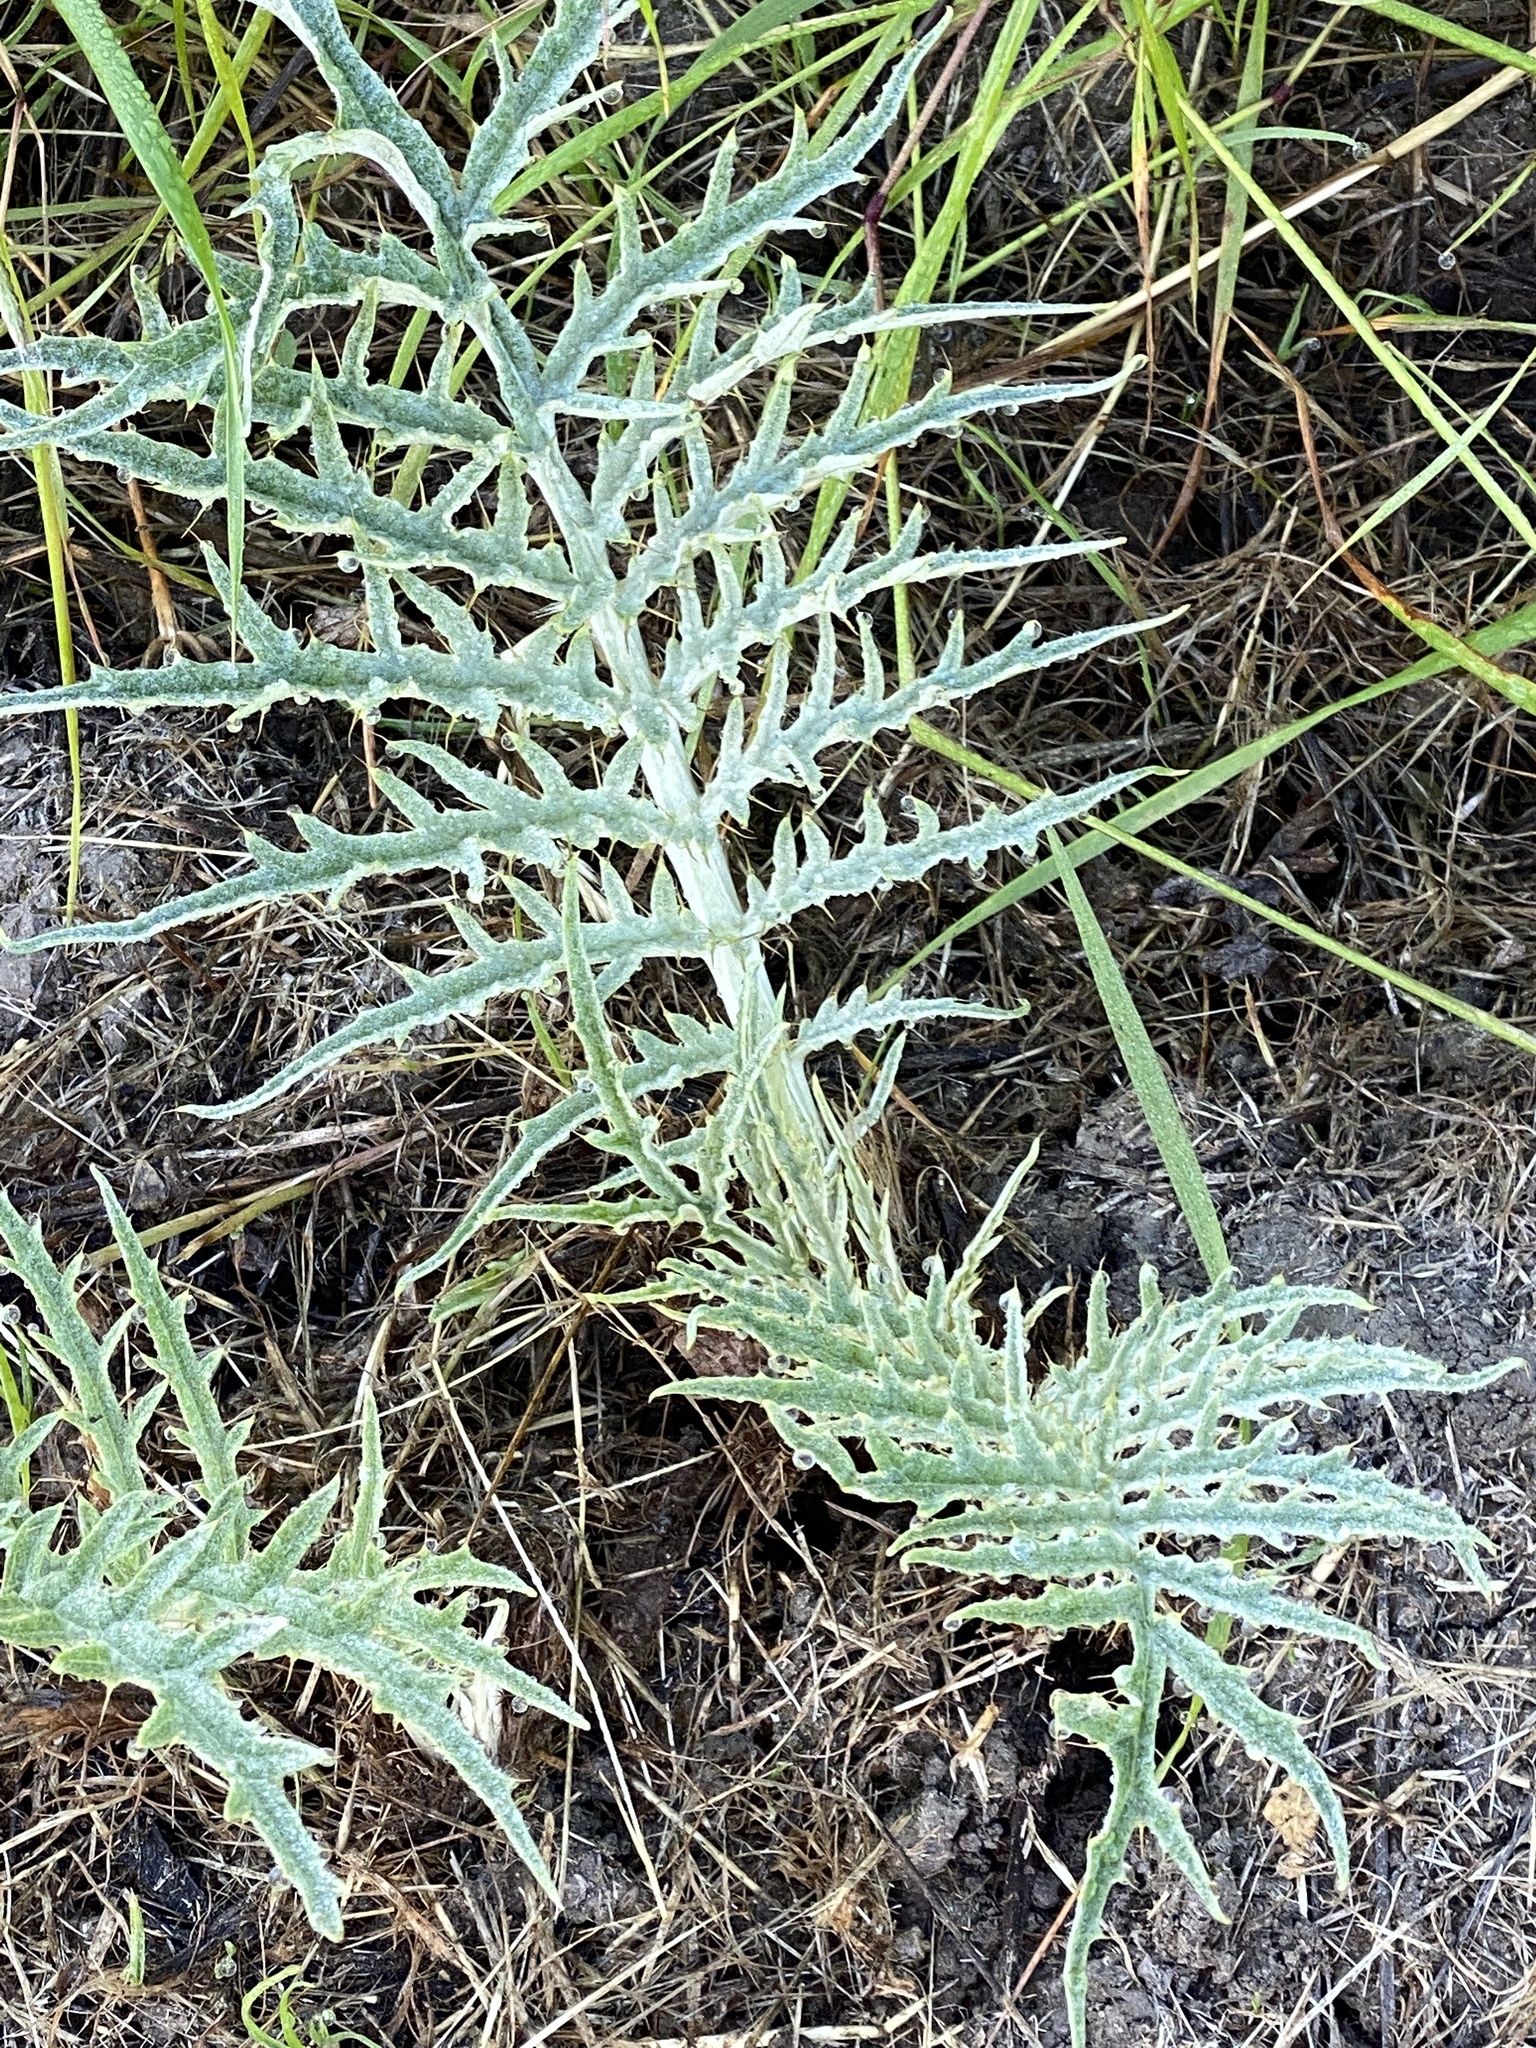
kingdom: Plantae
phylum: Tracheophyta
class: Magnoliopsida
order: Asterales
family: Asteraceae
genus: Cynara
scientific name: Cynara cardunculus
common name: Globe artichoke
